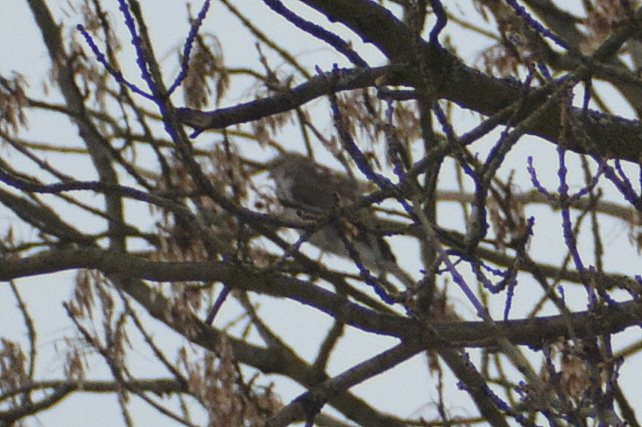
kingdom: Animalia
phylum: Chordata
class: Aves
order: Accipitriformes
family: Accipitridae
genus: Accipiter
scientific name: Accipiter nisus
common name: Eurasian sparrowhawk
